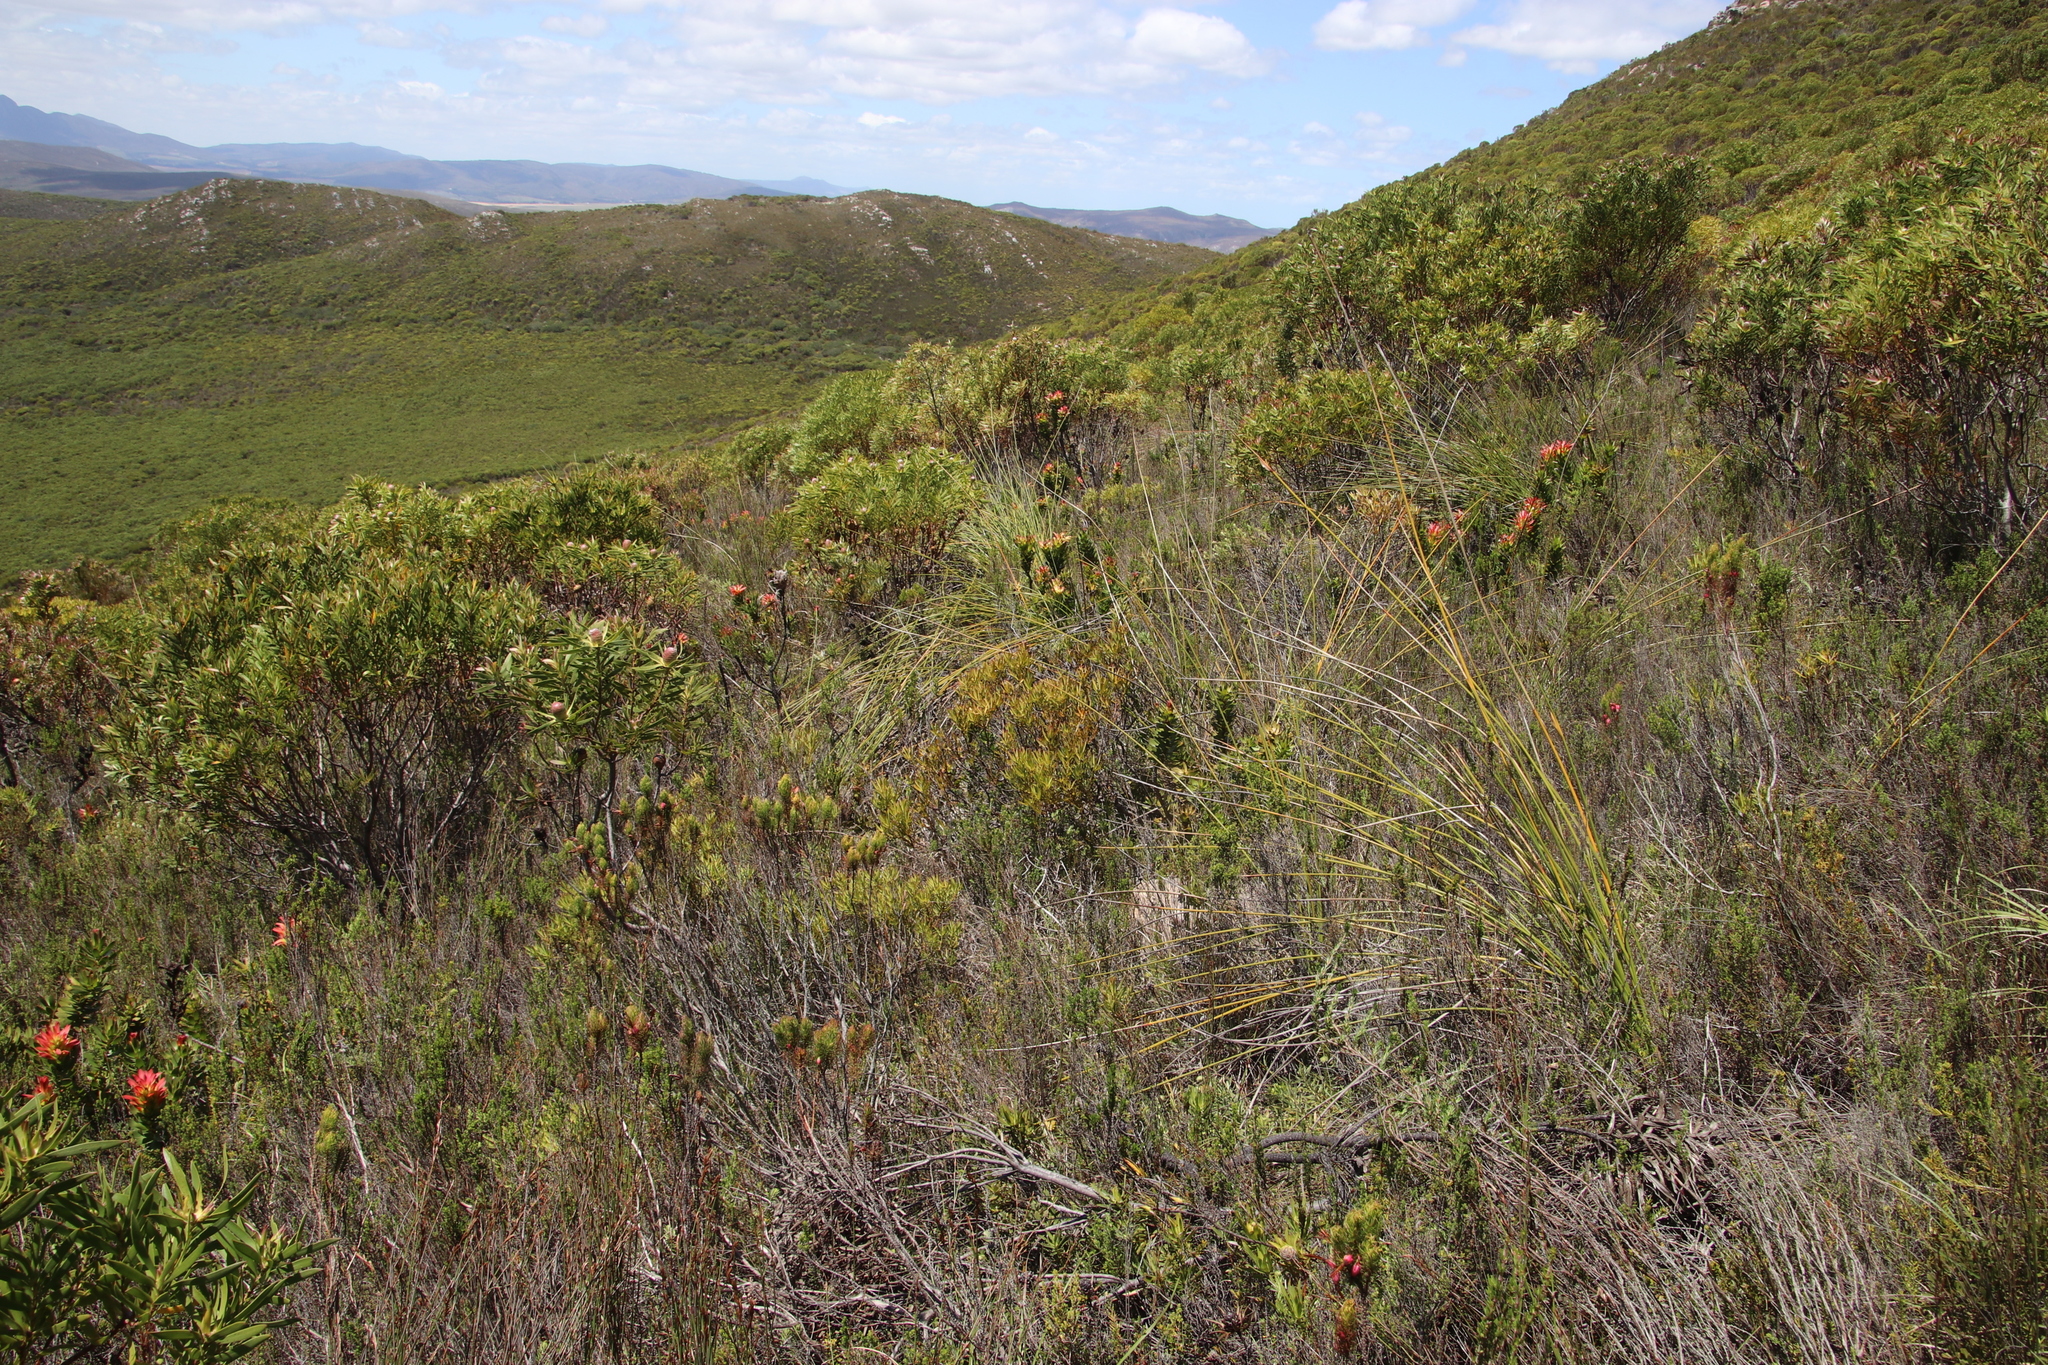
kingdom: Plantae
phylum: Tracheophyta
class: Magnoliopsida
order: Proteales
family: Proteaceae
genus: Leucadendron
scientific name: Leucadendron salignum
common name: Common sunshine conebush
